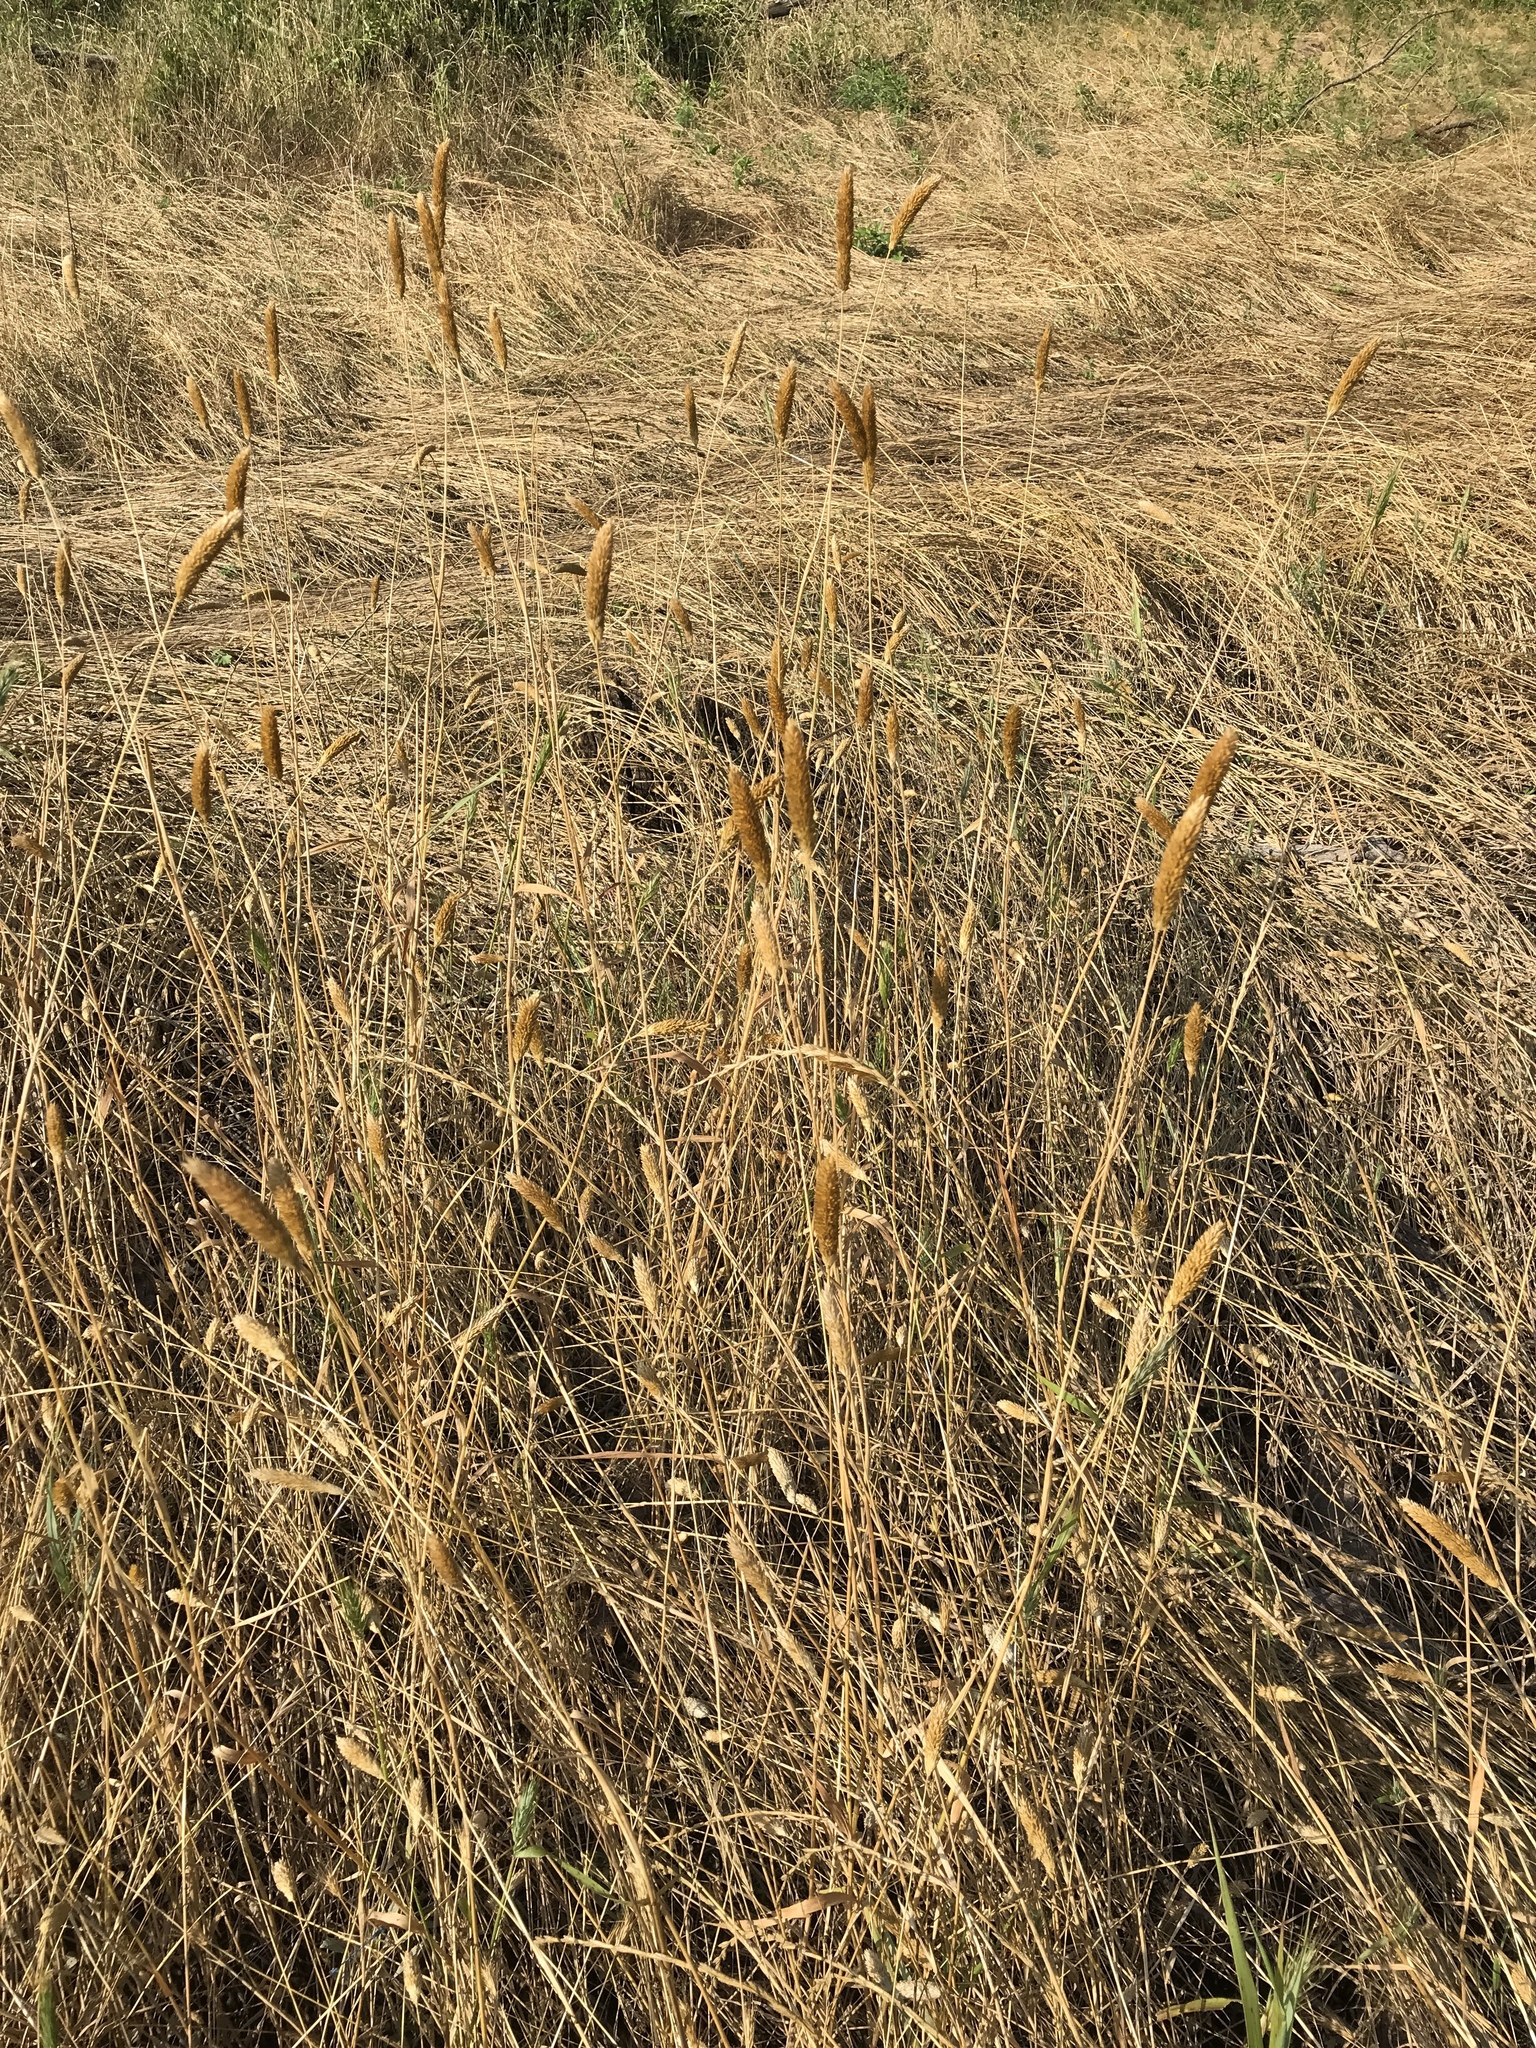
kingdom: Plantae
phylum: Tracheophyta
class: Liliopsida
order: Poales
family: Poaceae
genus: Phalaris
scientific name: Phalaris caroliniana
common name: May grass
